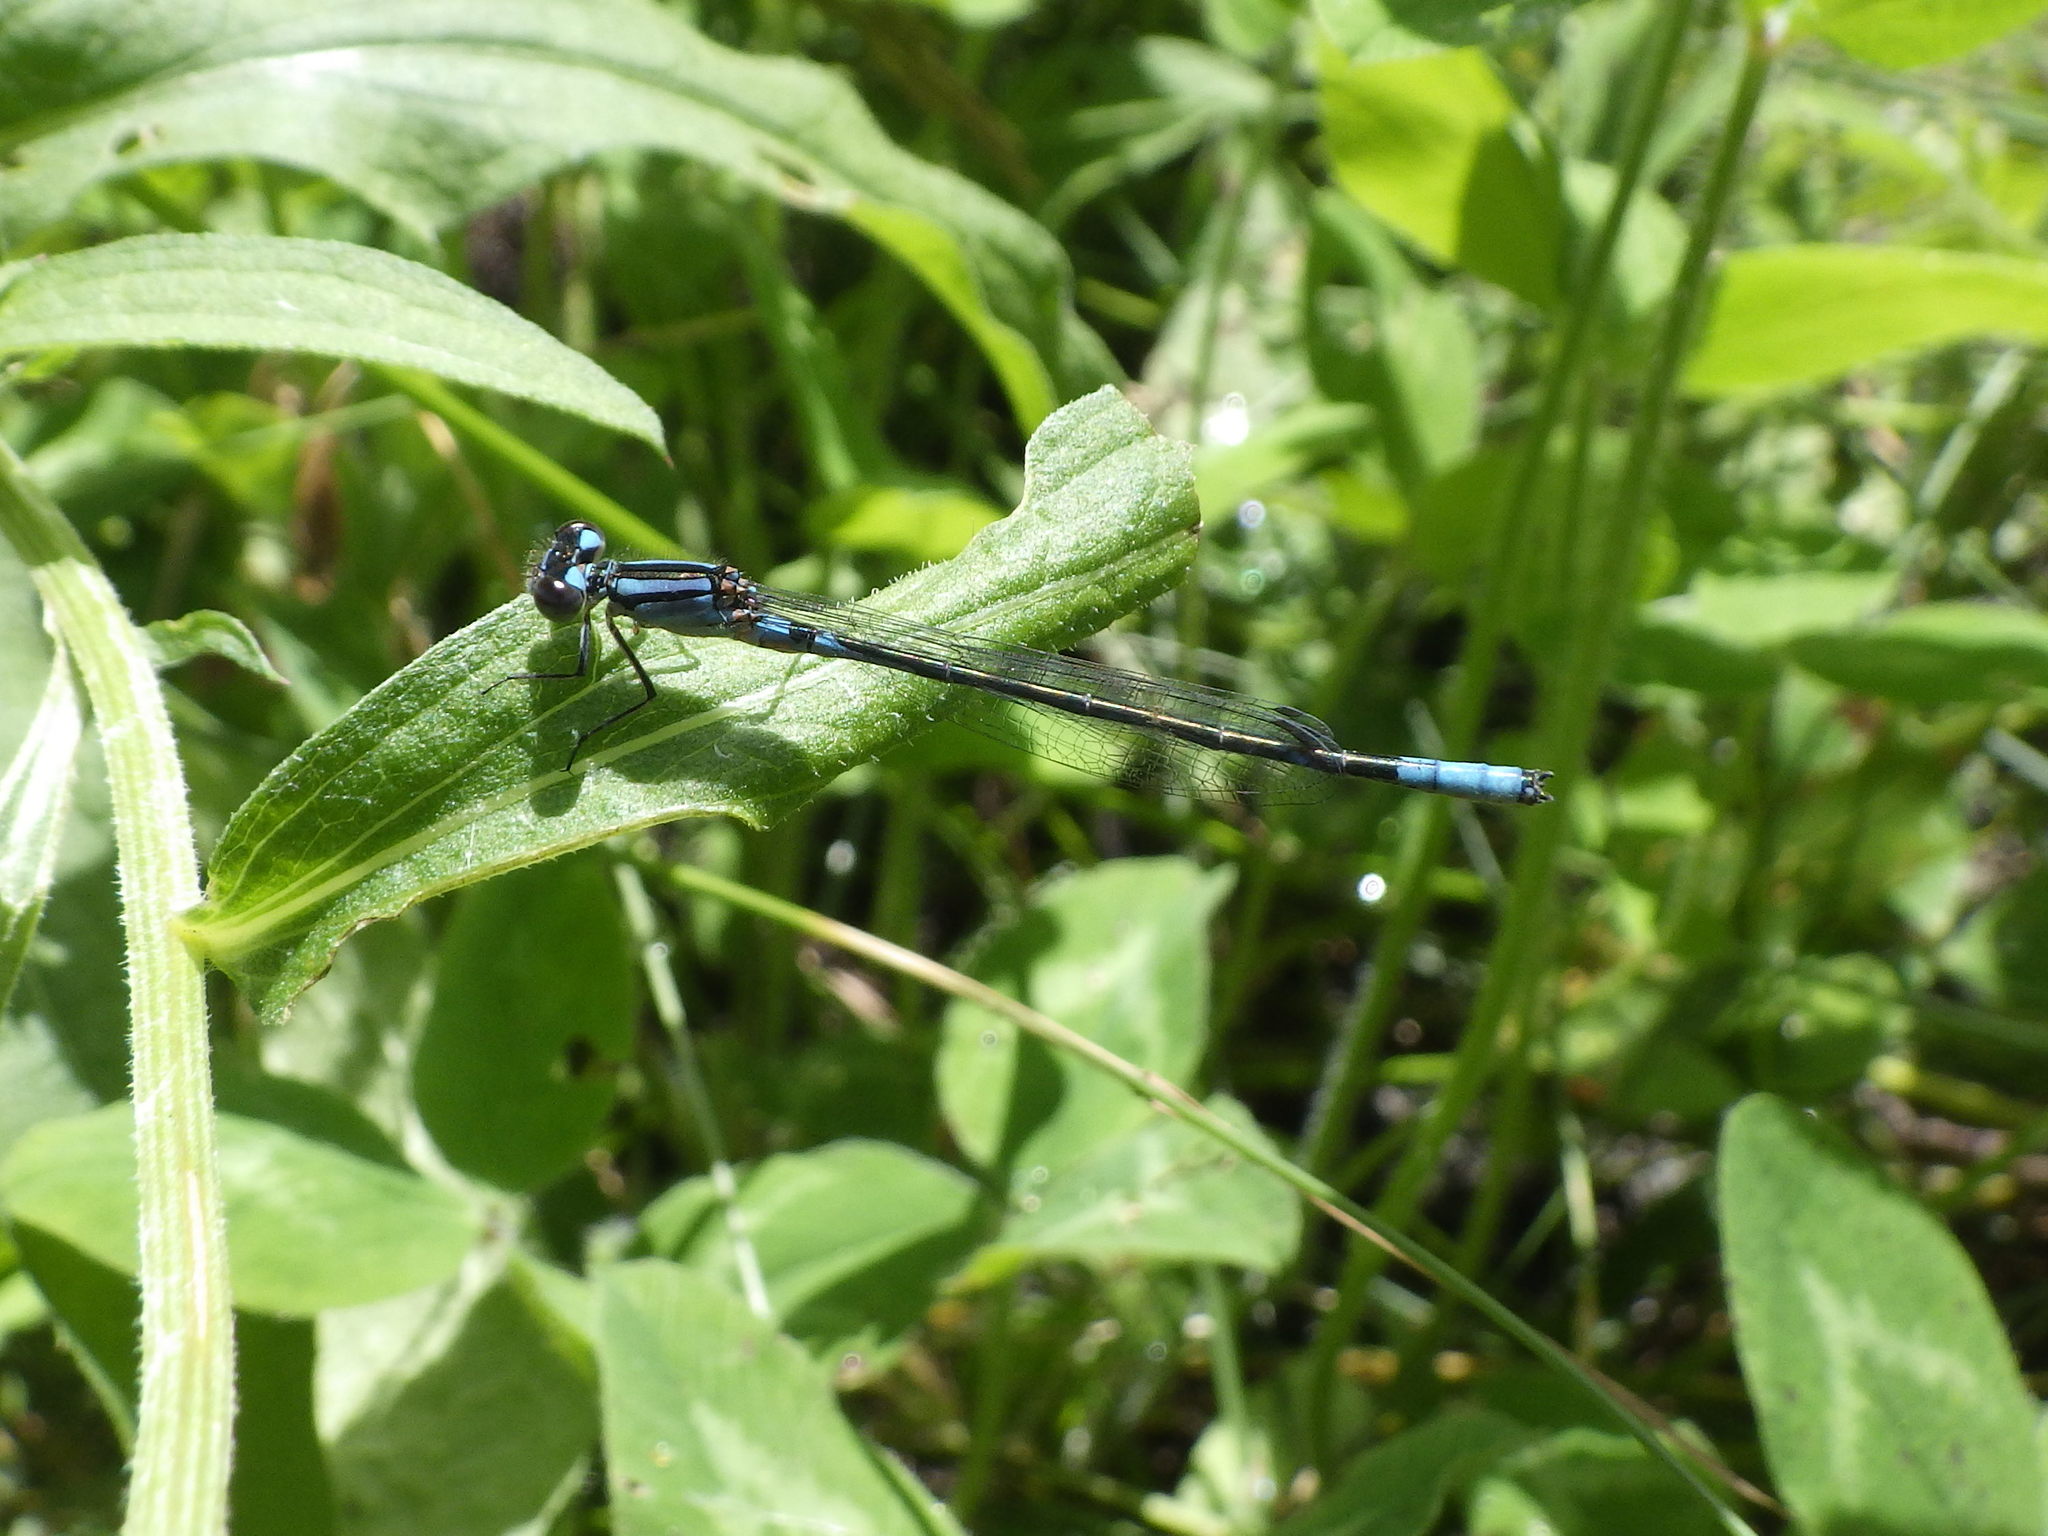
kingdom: Animalia
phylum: Arthropoda
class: Insecta
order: Odonata
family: Coenagrionidae
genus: Enallagma
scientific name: Enallagma aspersum
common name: Azure bluet
